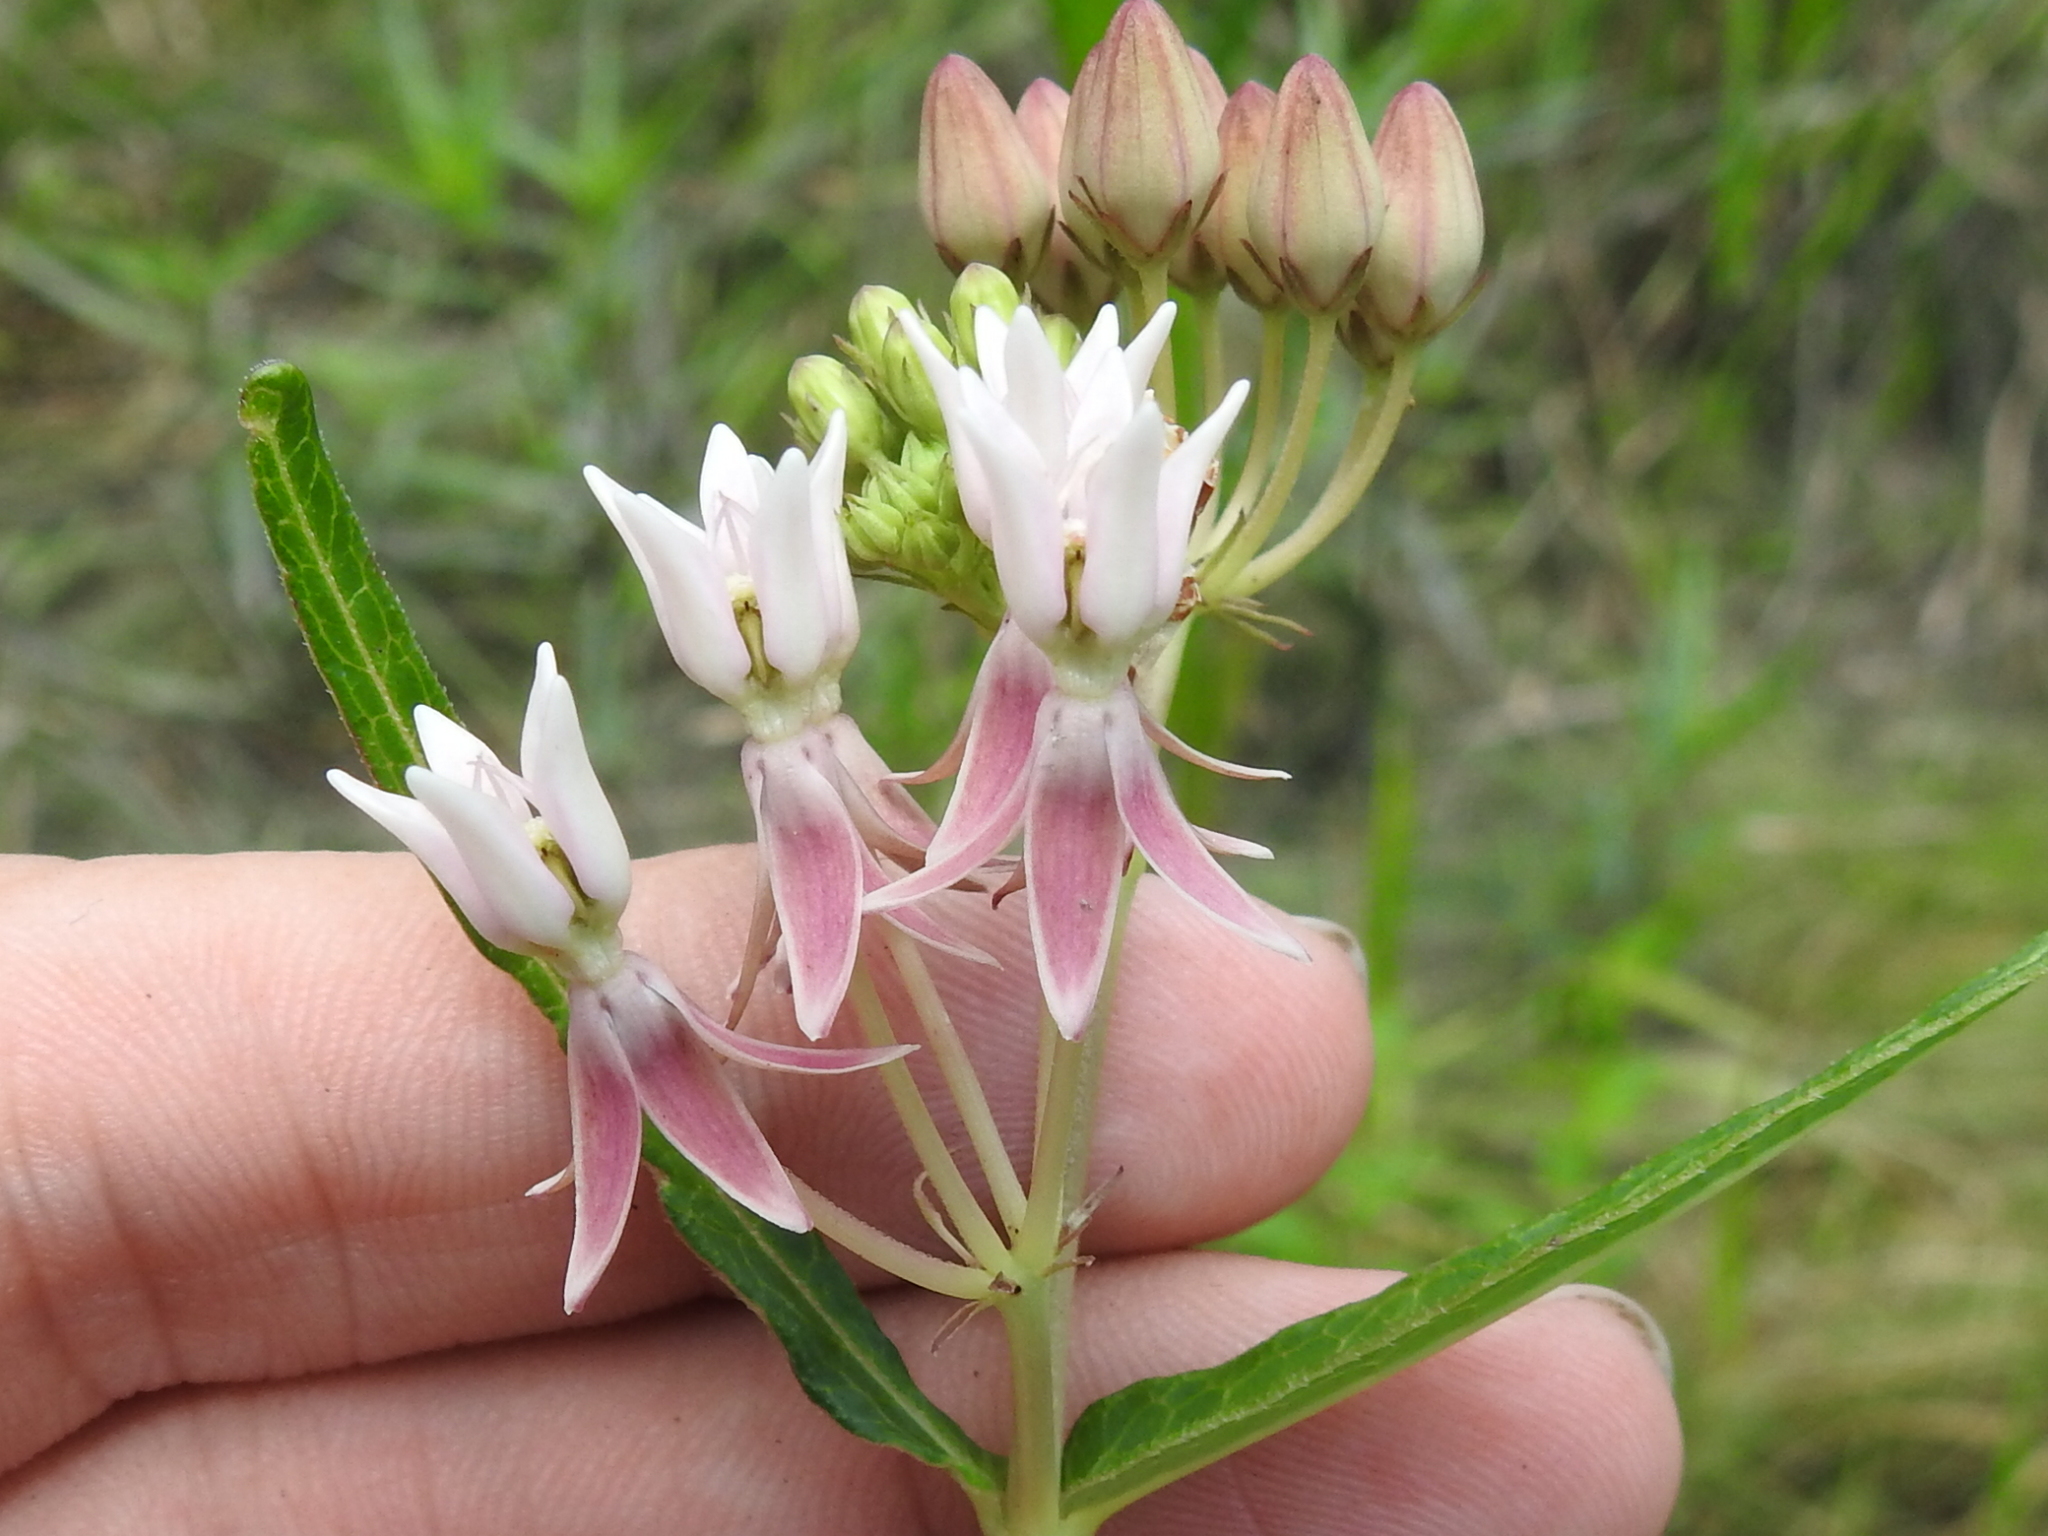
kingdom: Plantae
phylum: Tracheophyta
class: Magnoliopsida
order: Gentianales
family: Apocynaceae
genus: Asclepias
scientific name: Asclepias rubra
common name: Red milkweed
